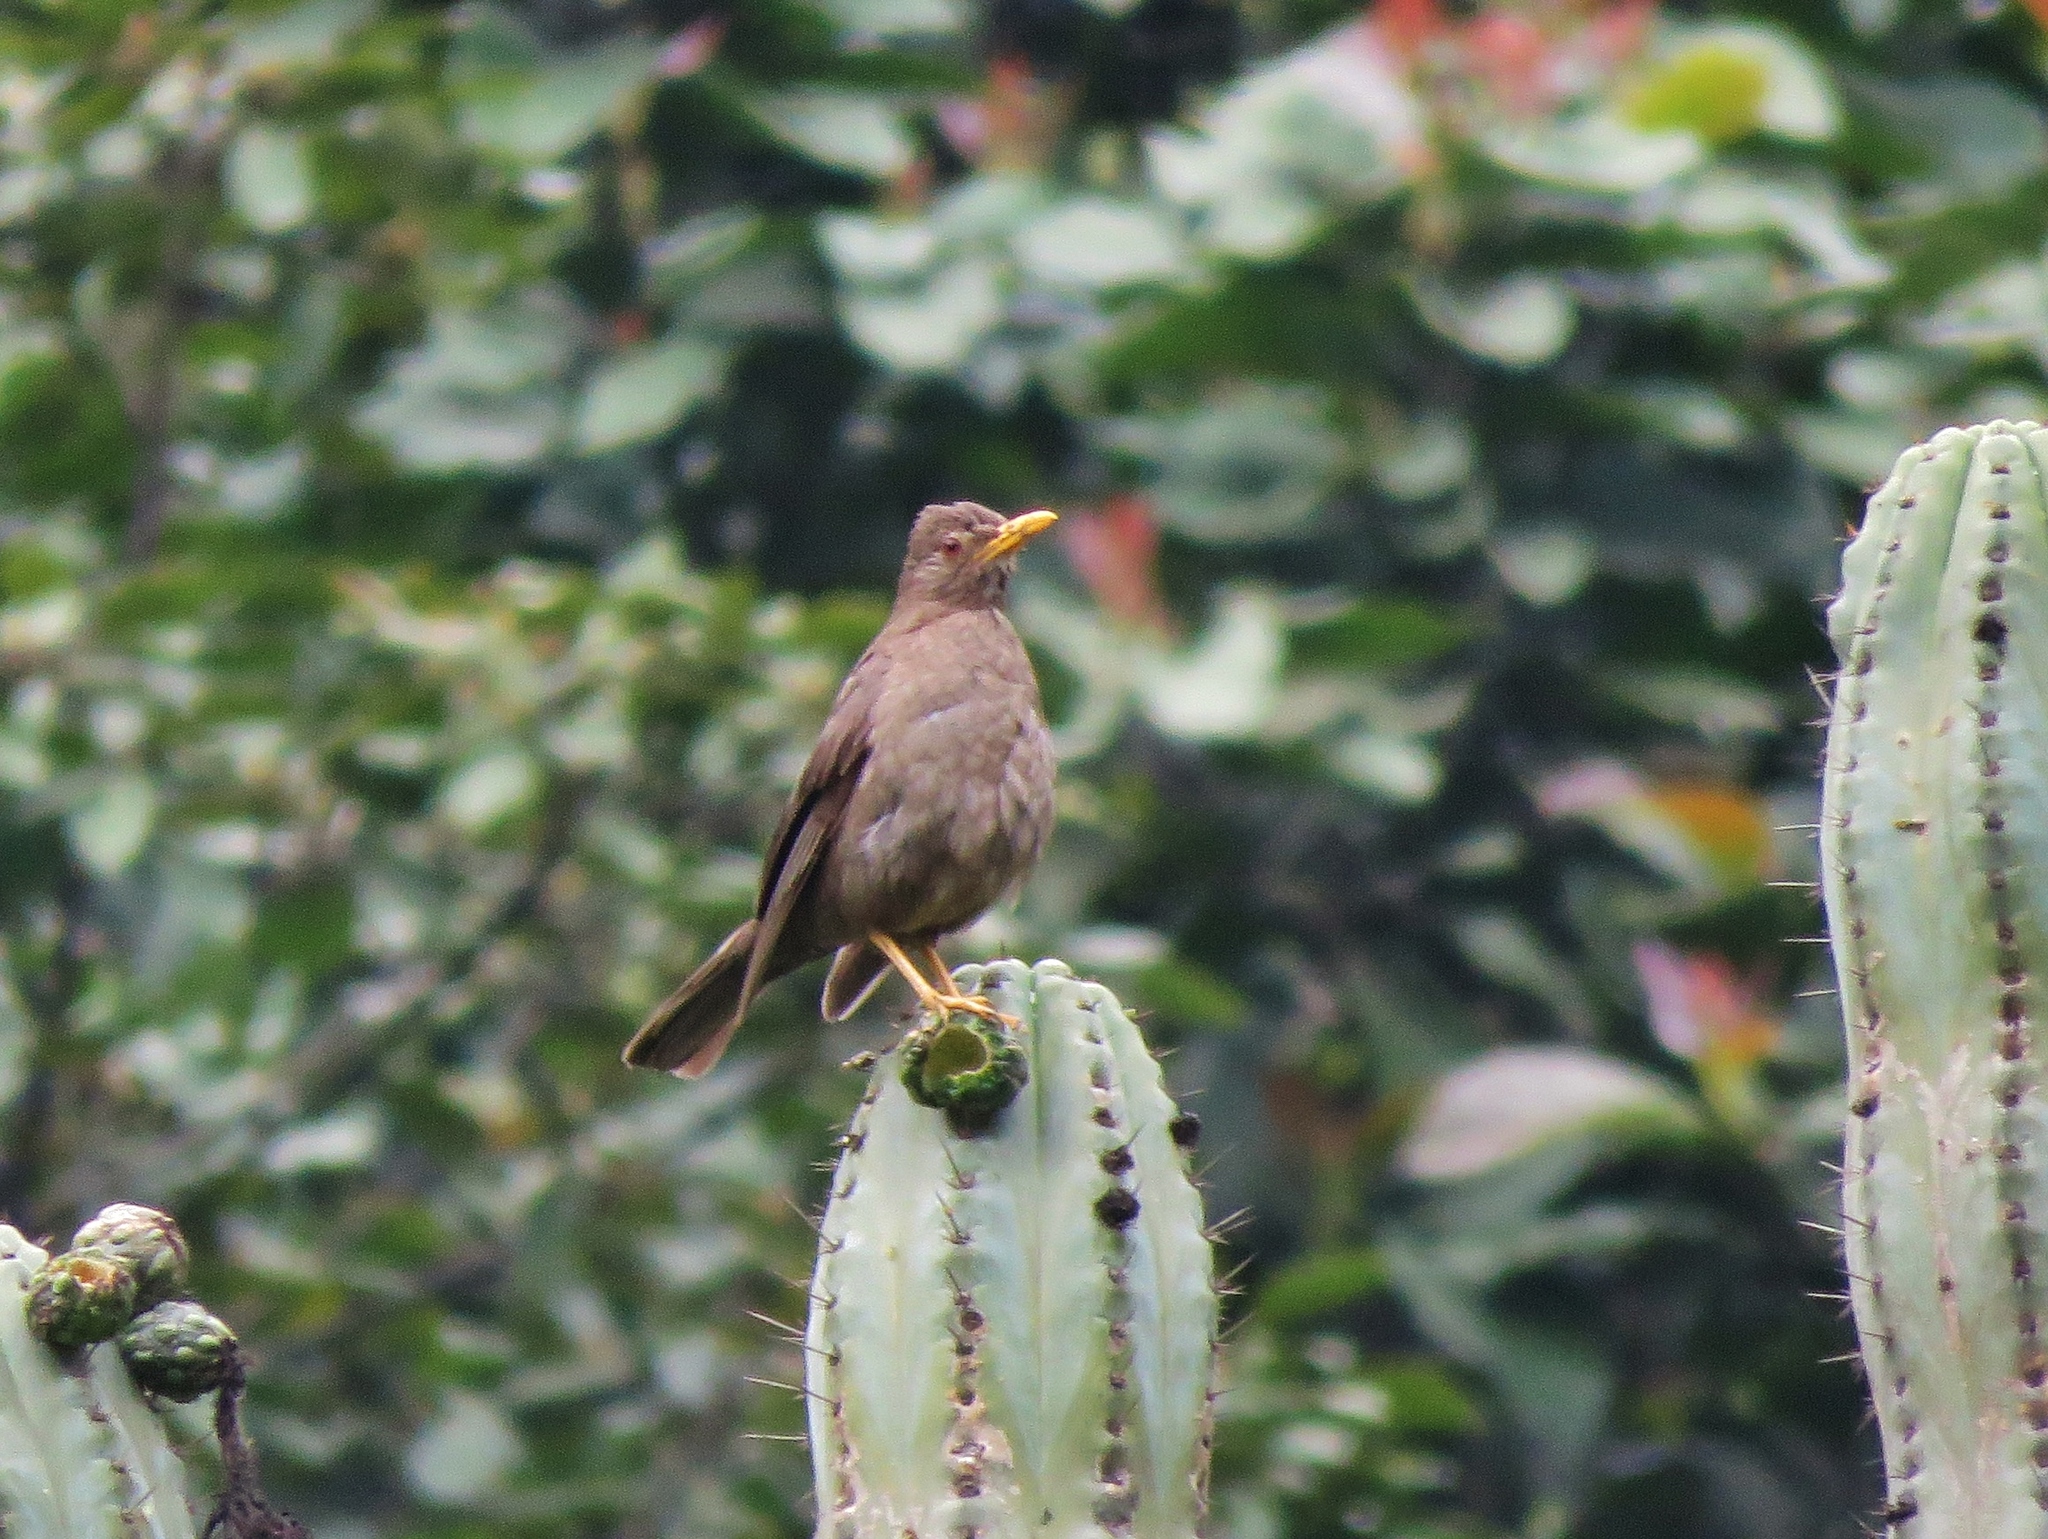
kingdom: Animalia
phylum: Chordata
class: Aves
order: Passeriformes
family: Turdidae
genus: Turdus
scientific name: Turdus chiguanco
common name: Chiguanco thrush
